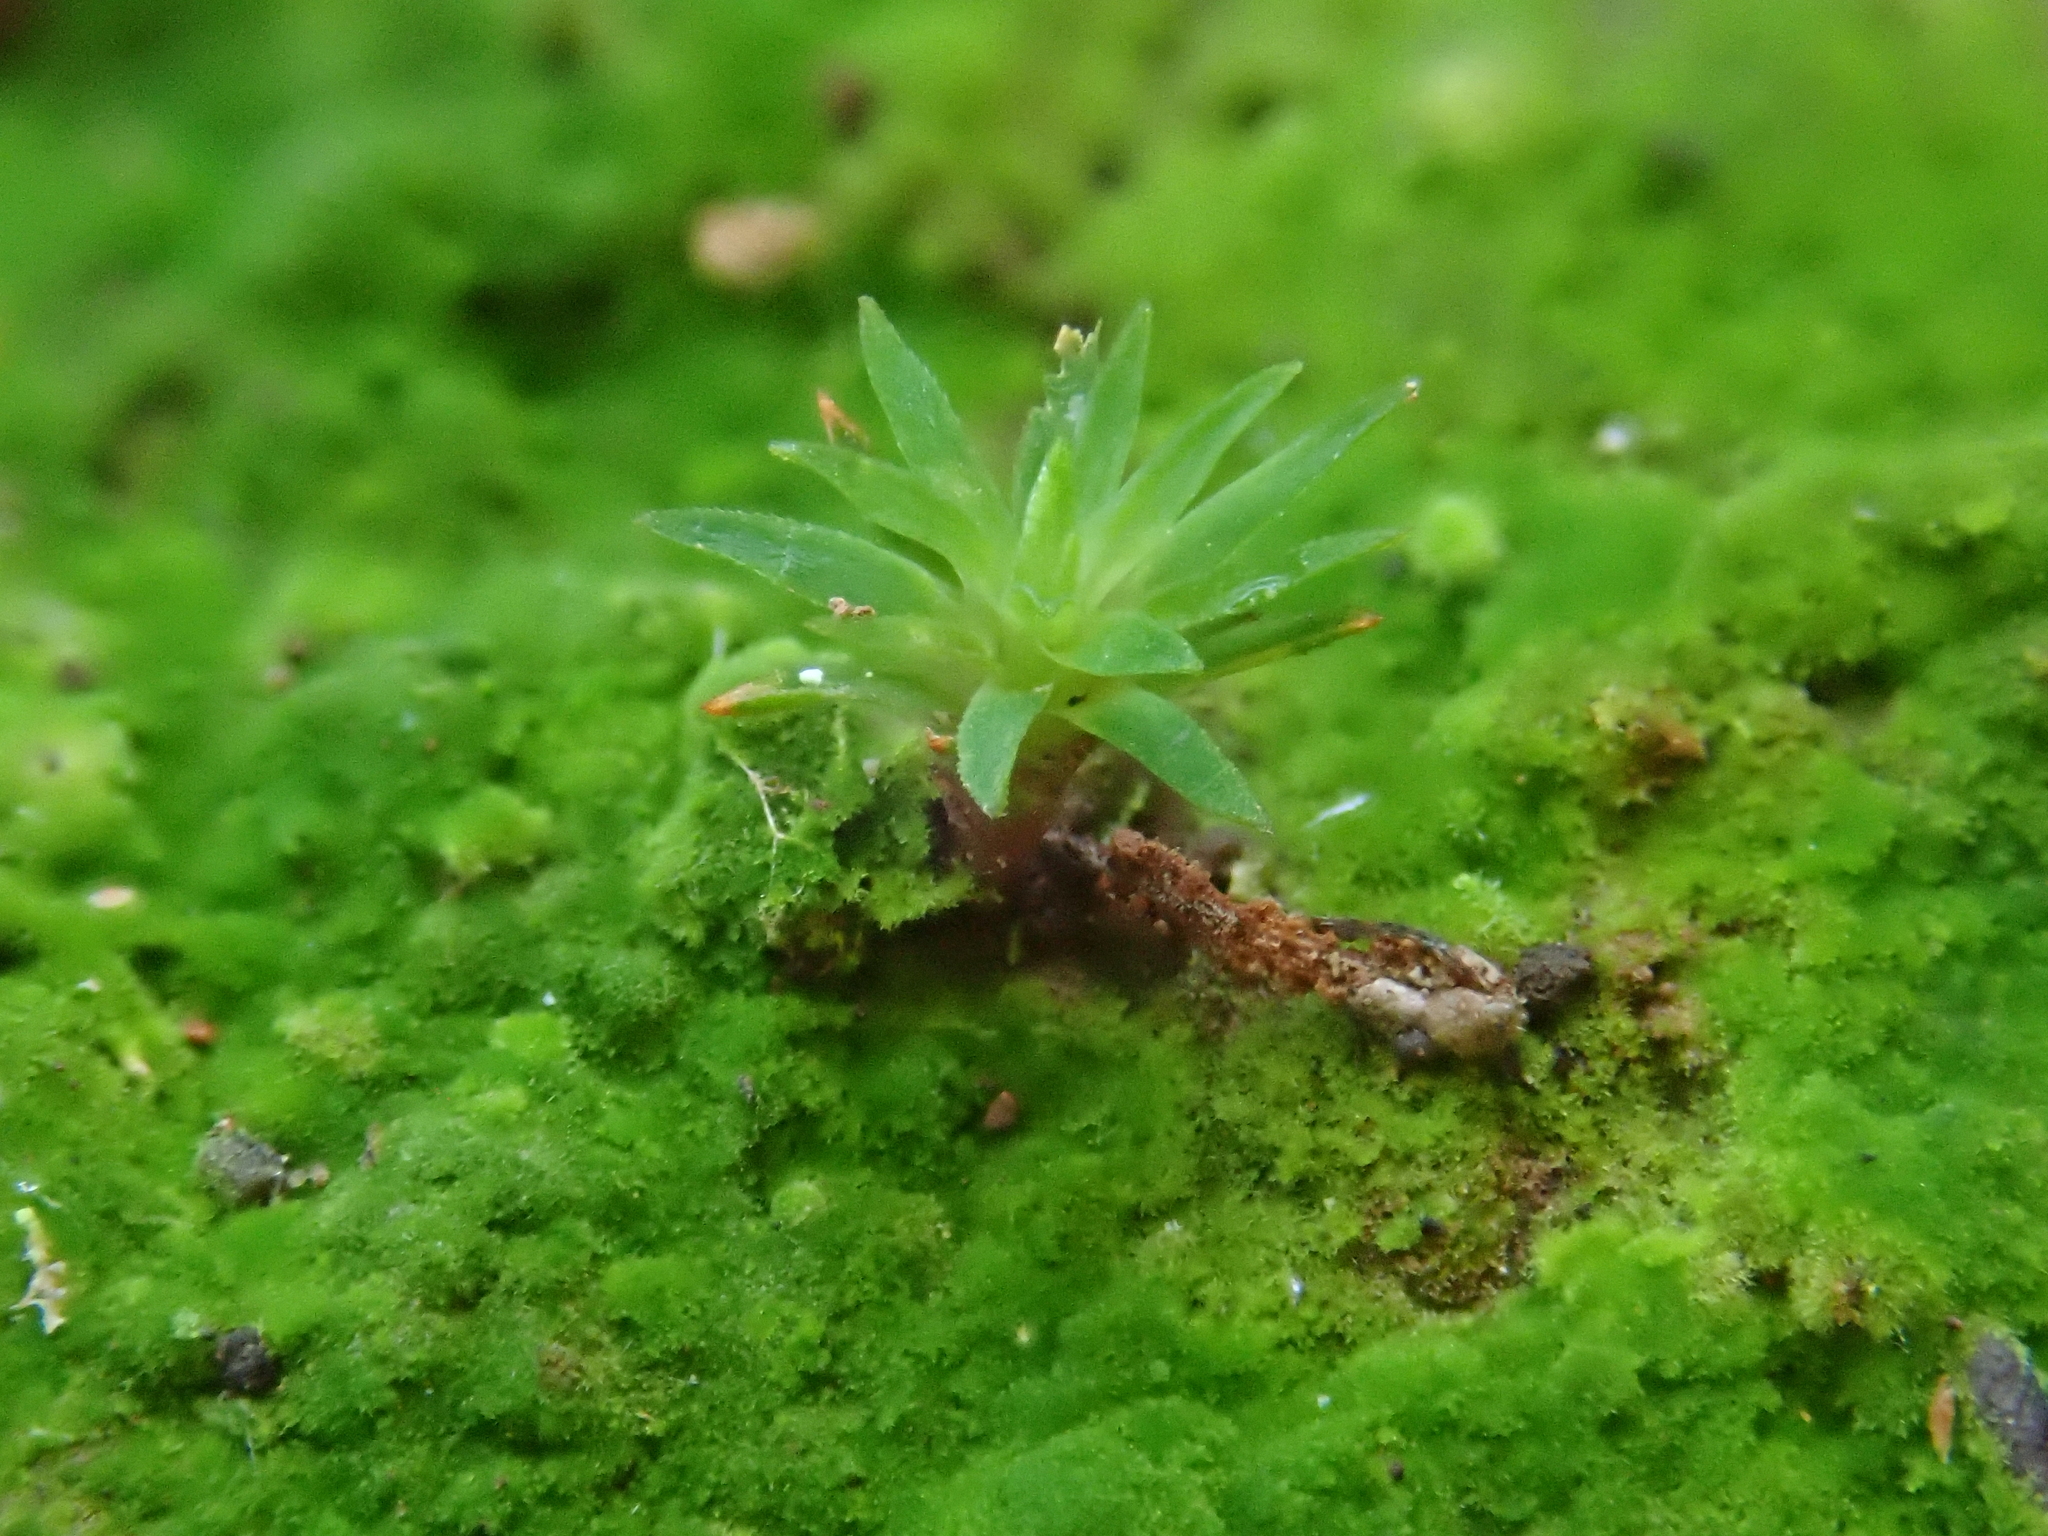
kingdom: Plantae
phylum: Bryophyta
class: Polytrichopsida
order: Polytrichales
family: Polytrichaceae
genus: Pogonatum
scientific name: Pogonatum aloides
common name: Aloe haircap
